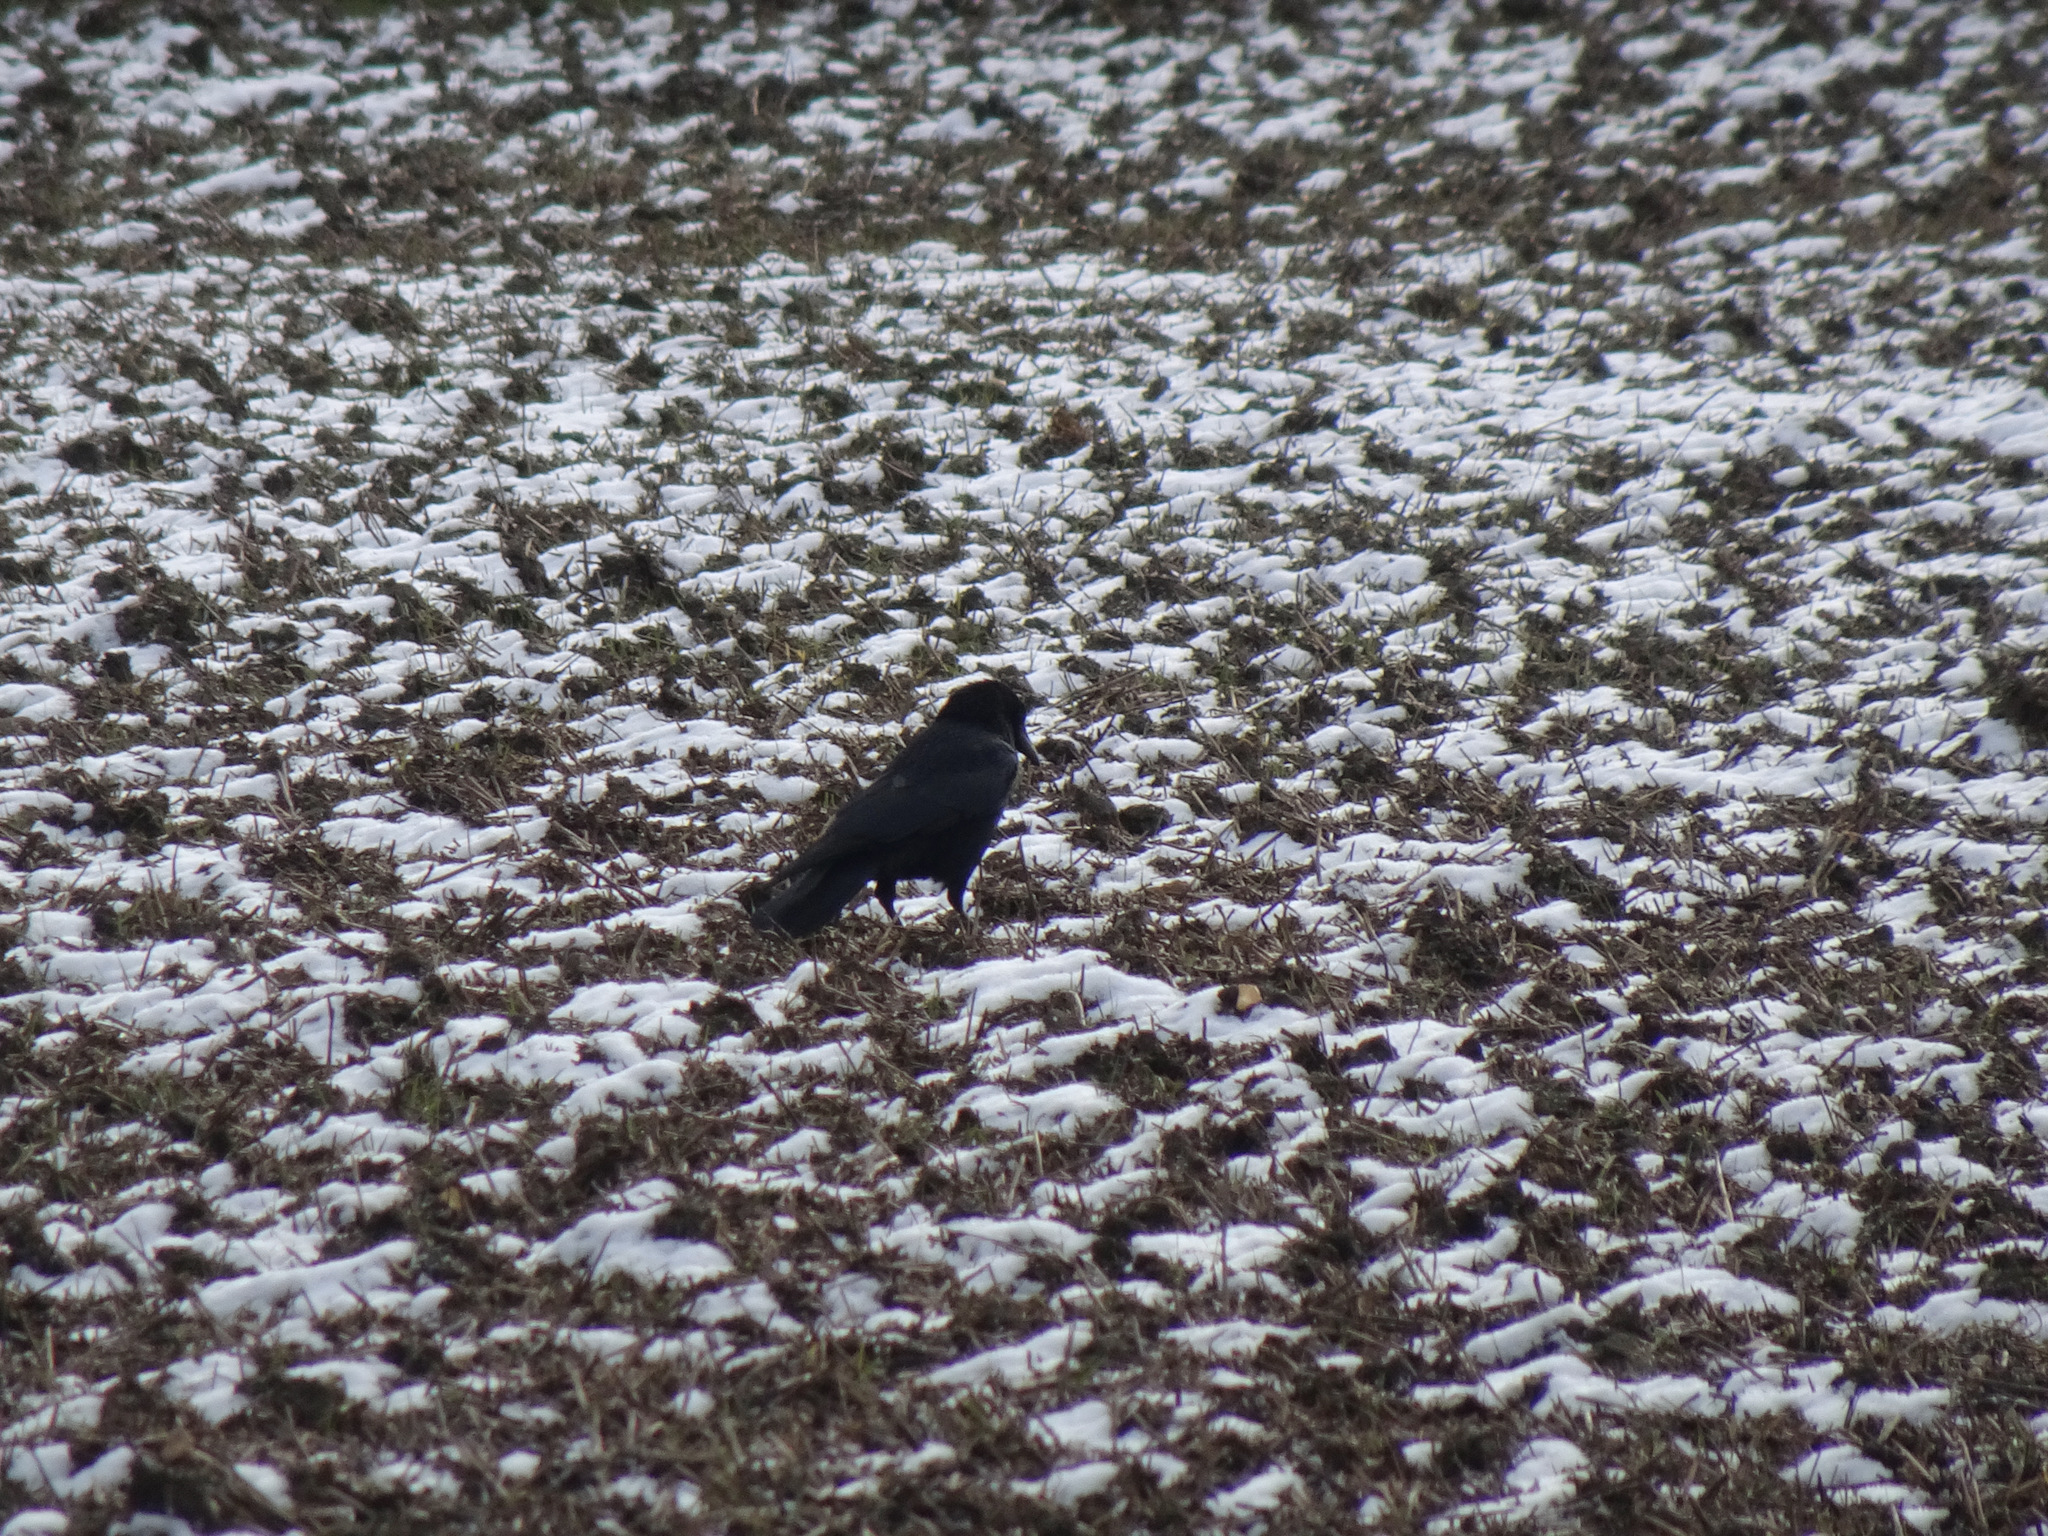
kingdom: Animalia
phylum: Chordata
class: Aves
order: Passeriformes
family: Corvidae
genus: Corvus
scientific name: Corvus corone
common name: Carrion crow
